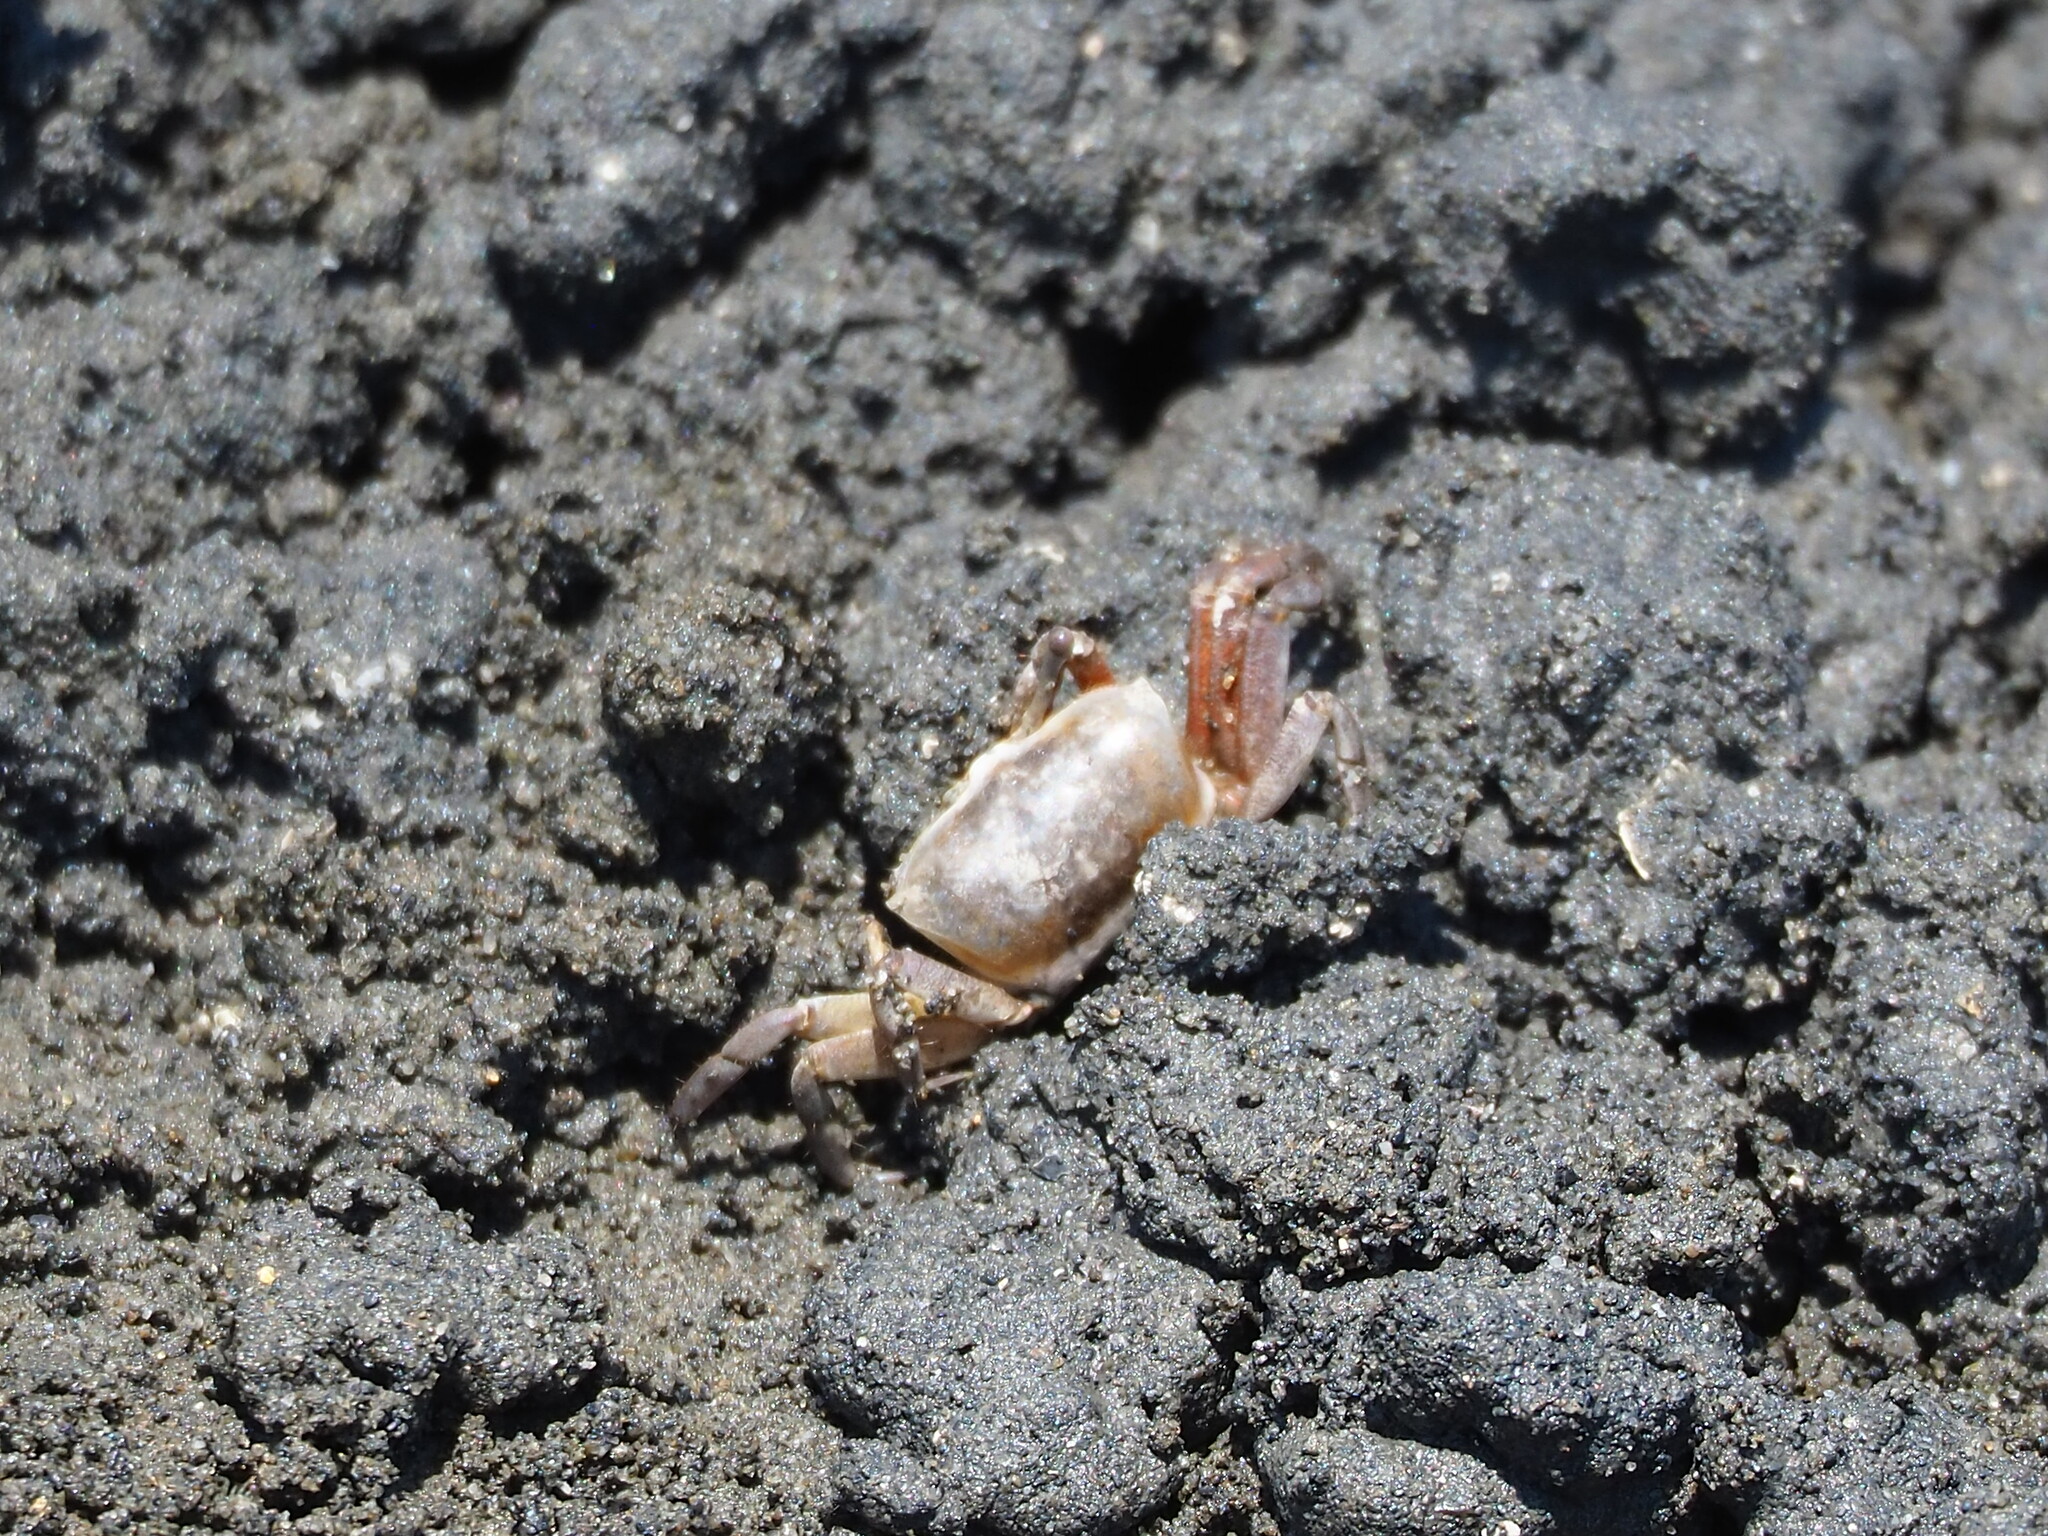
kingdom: Animalia
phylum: Arthropoda
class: Malacostraca
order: Decapoda
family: Ocypodidae
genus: Austruca
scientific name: Austruca lactea
